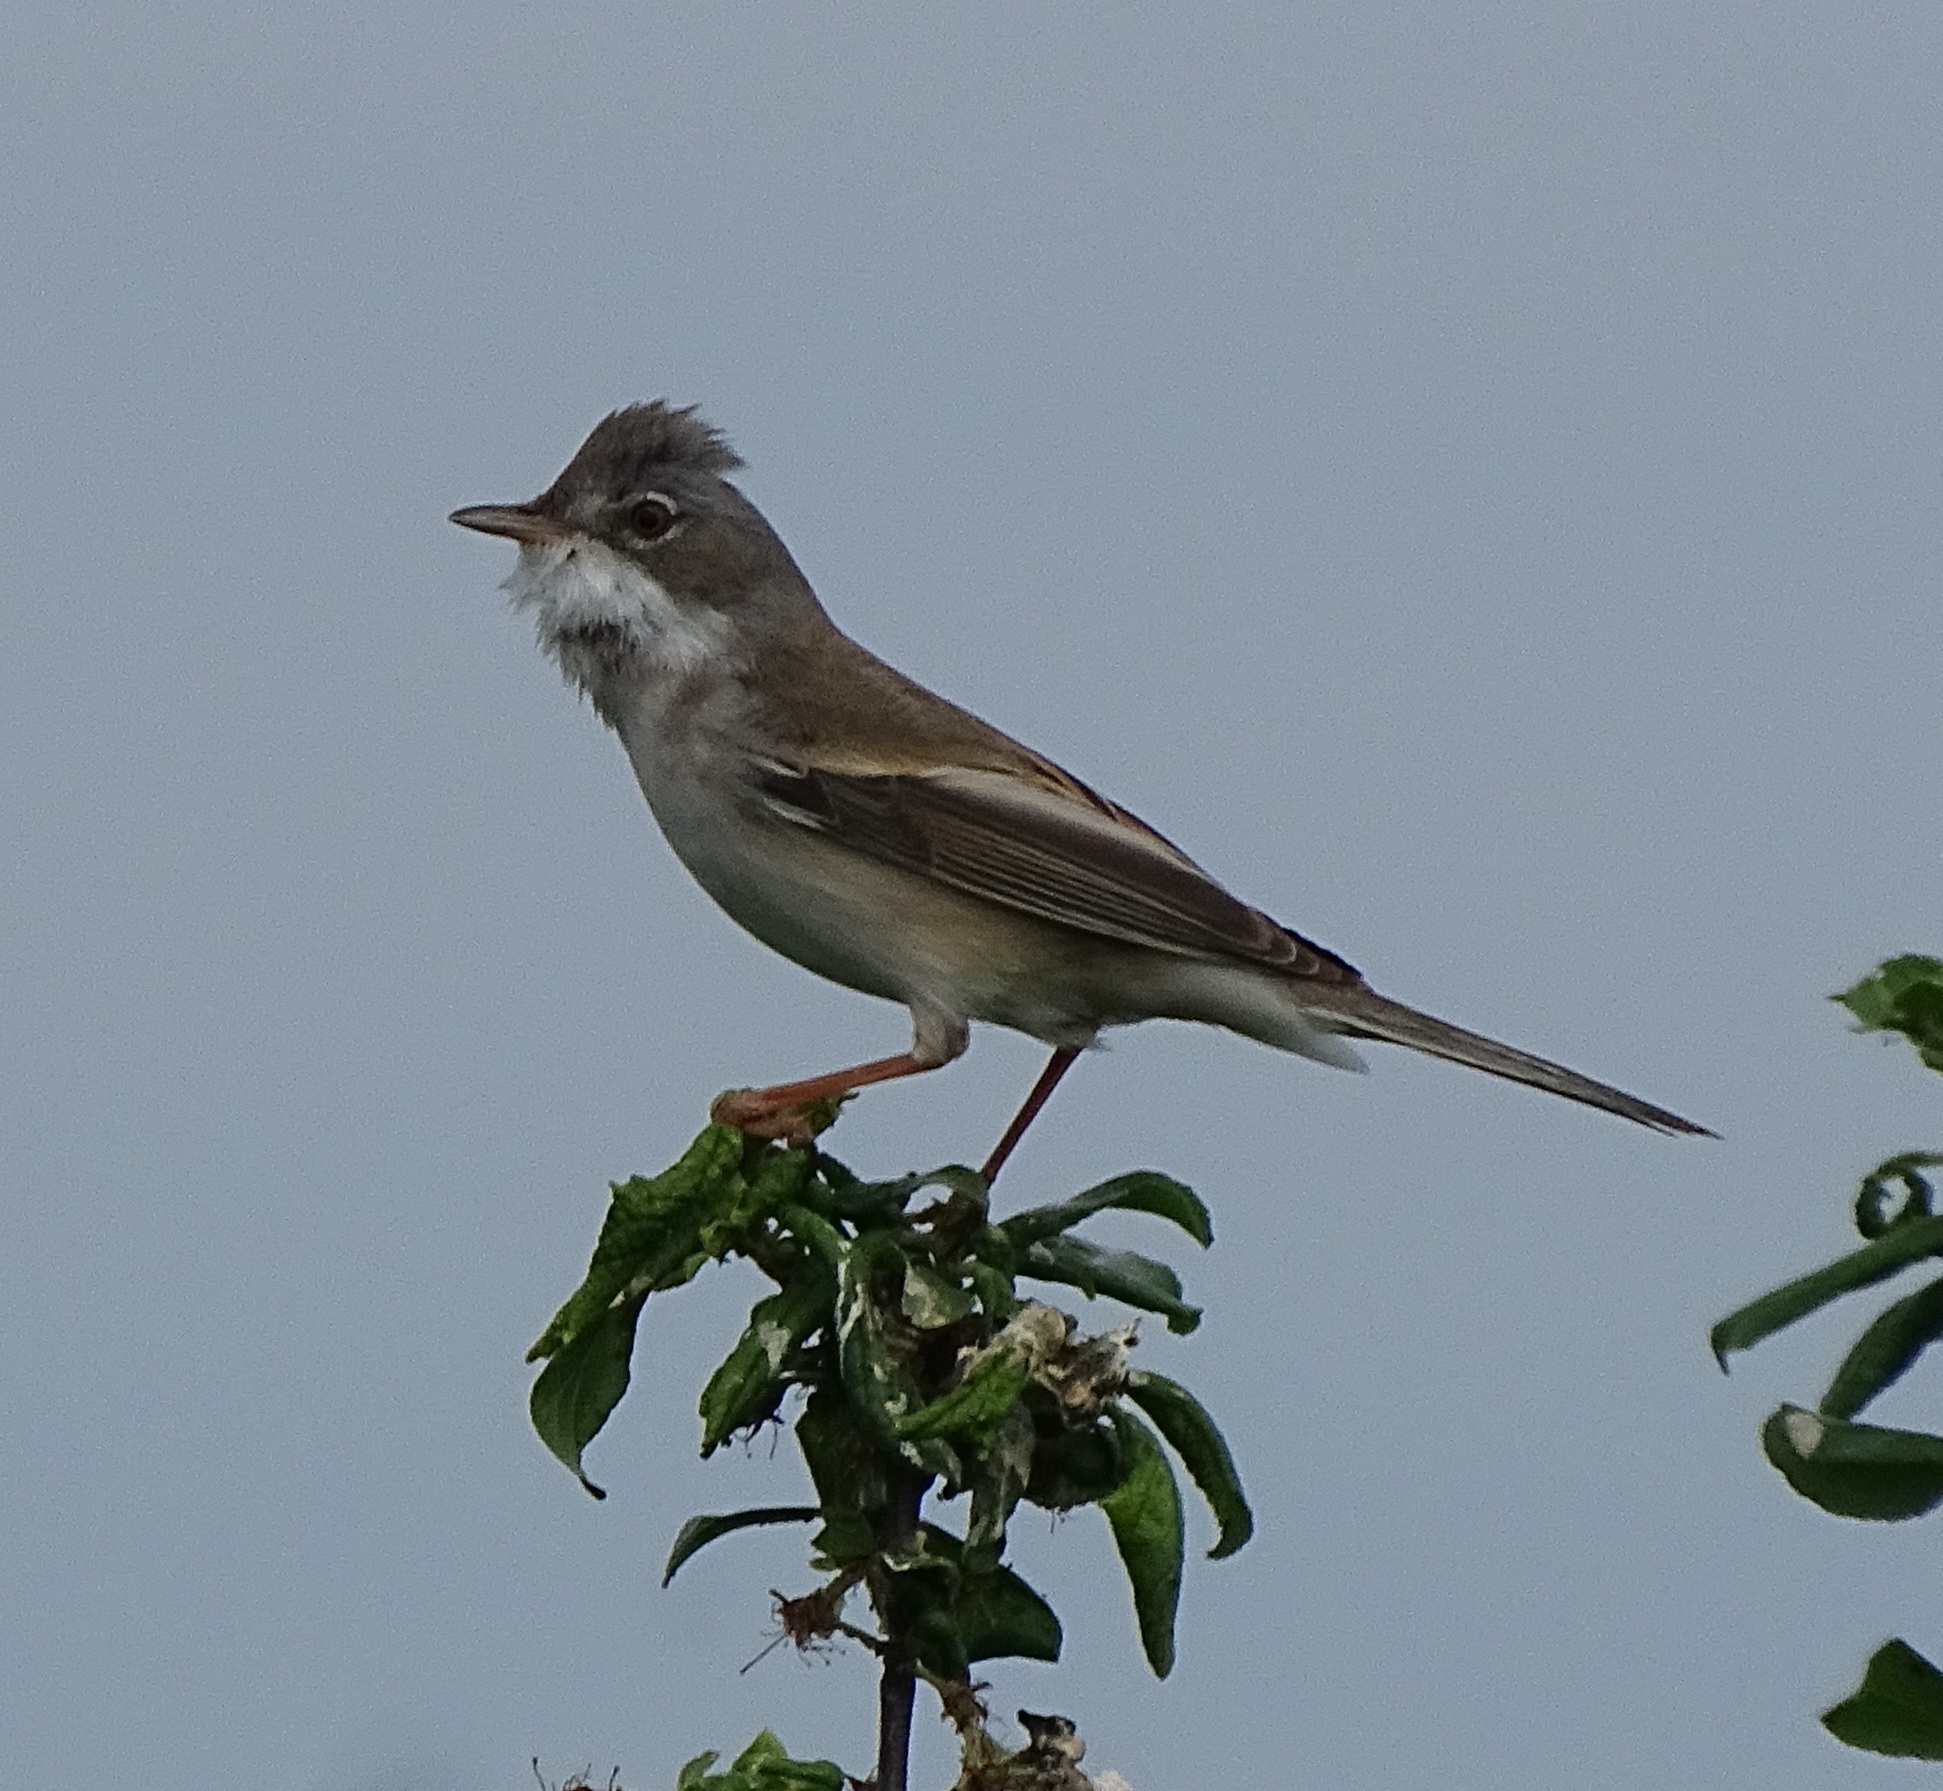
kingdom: Animalia
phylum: Chordata
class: Aves
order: Passeriformes
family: Sylviidae
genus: Sylvia
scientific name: Sylvia communis
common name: Common whitethroat
